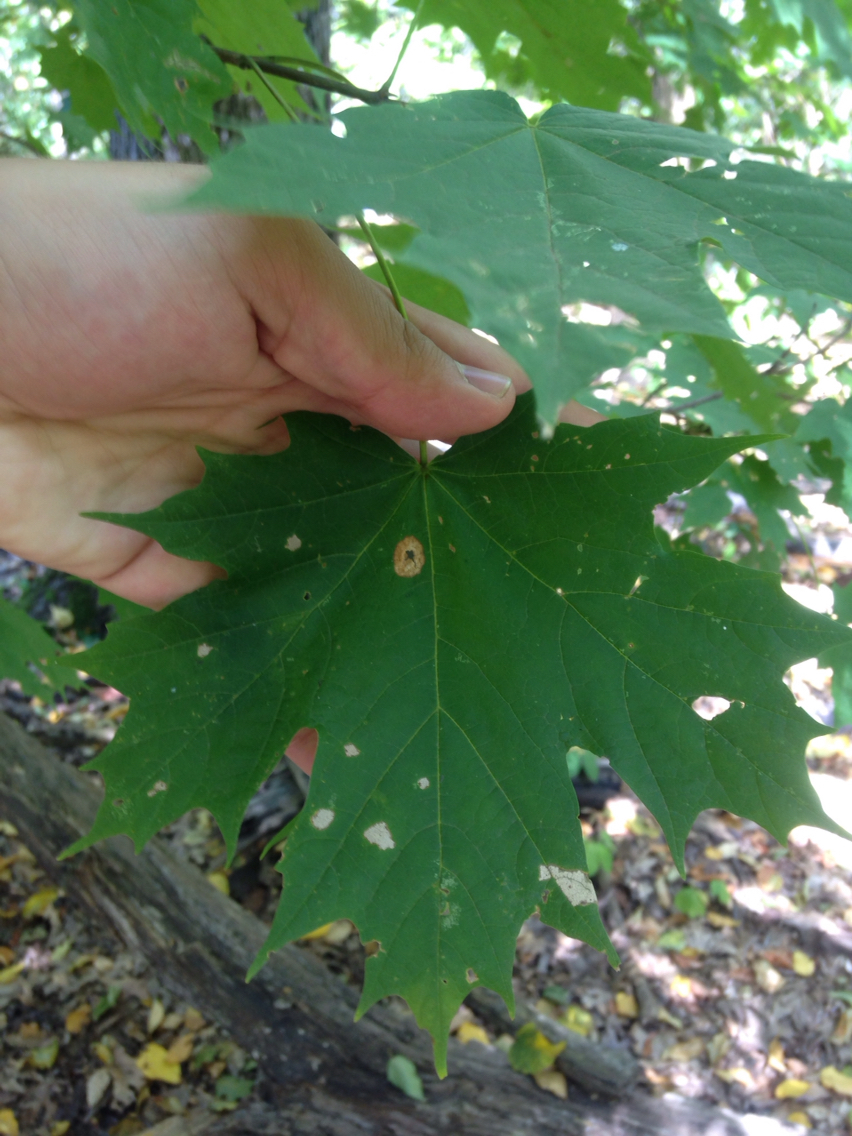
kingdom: Plantae
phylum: Tracheophyta
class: Magnoliopsida
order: Sapindales
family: Sapindaceae
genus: Acer
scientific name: Acer platanoides
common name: Norway maple
